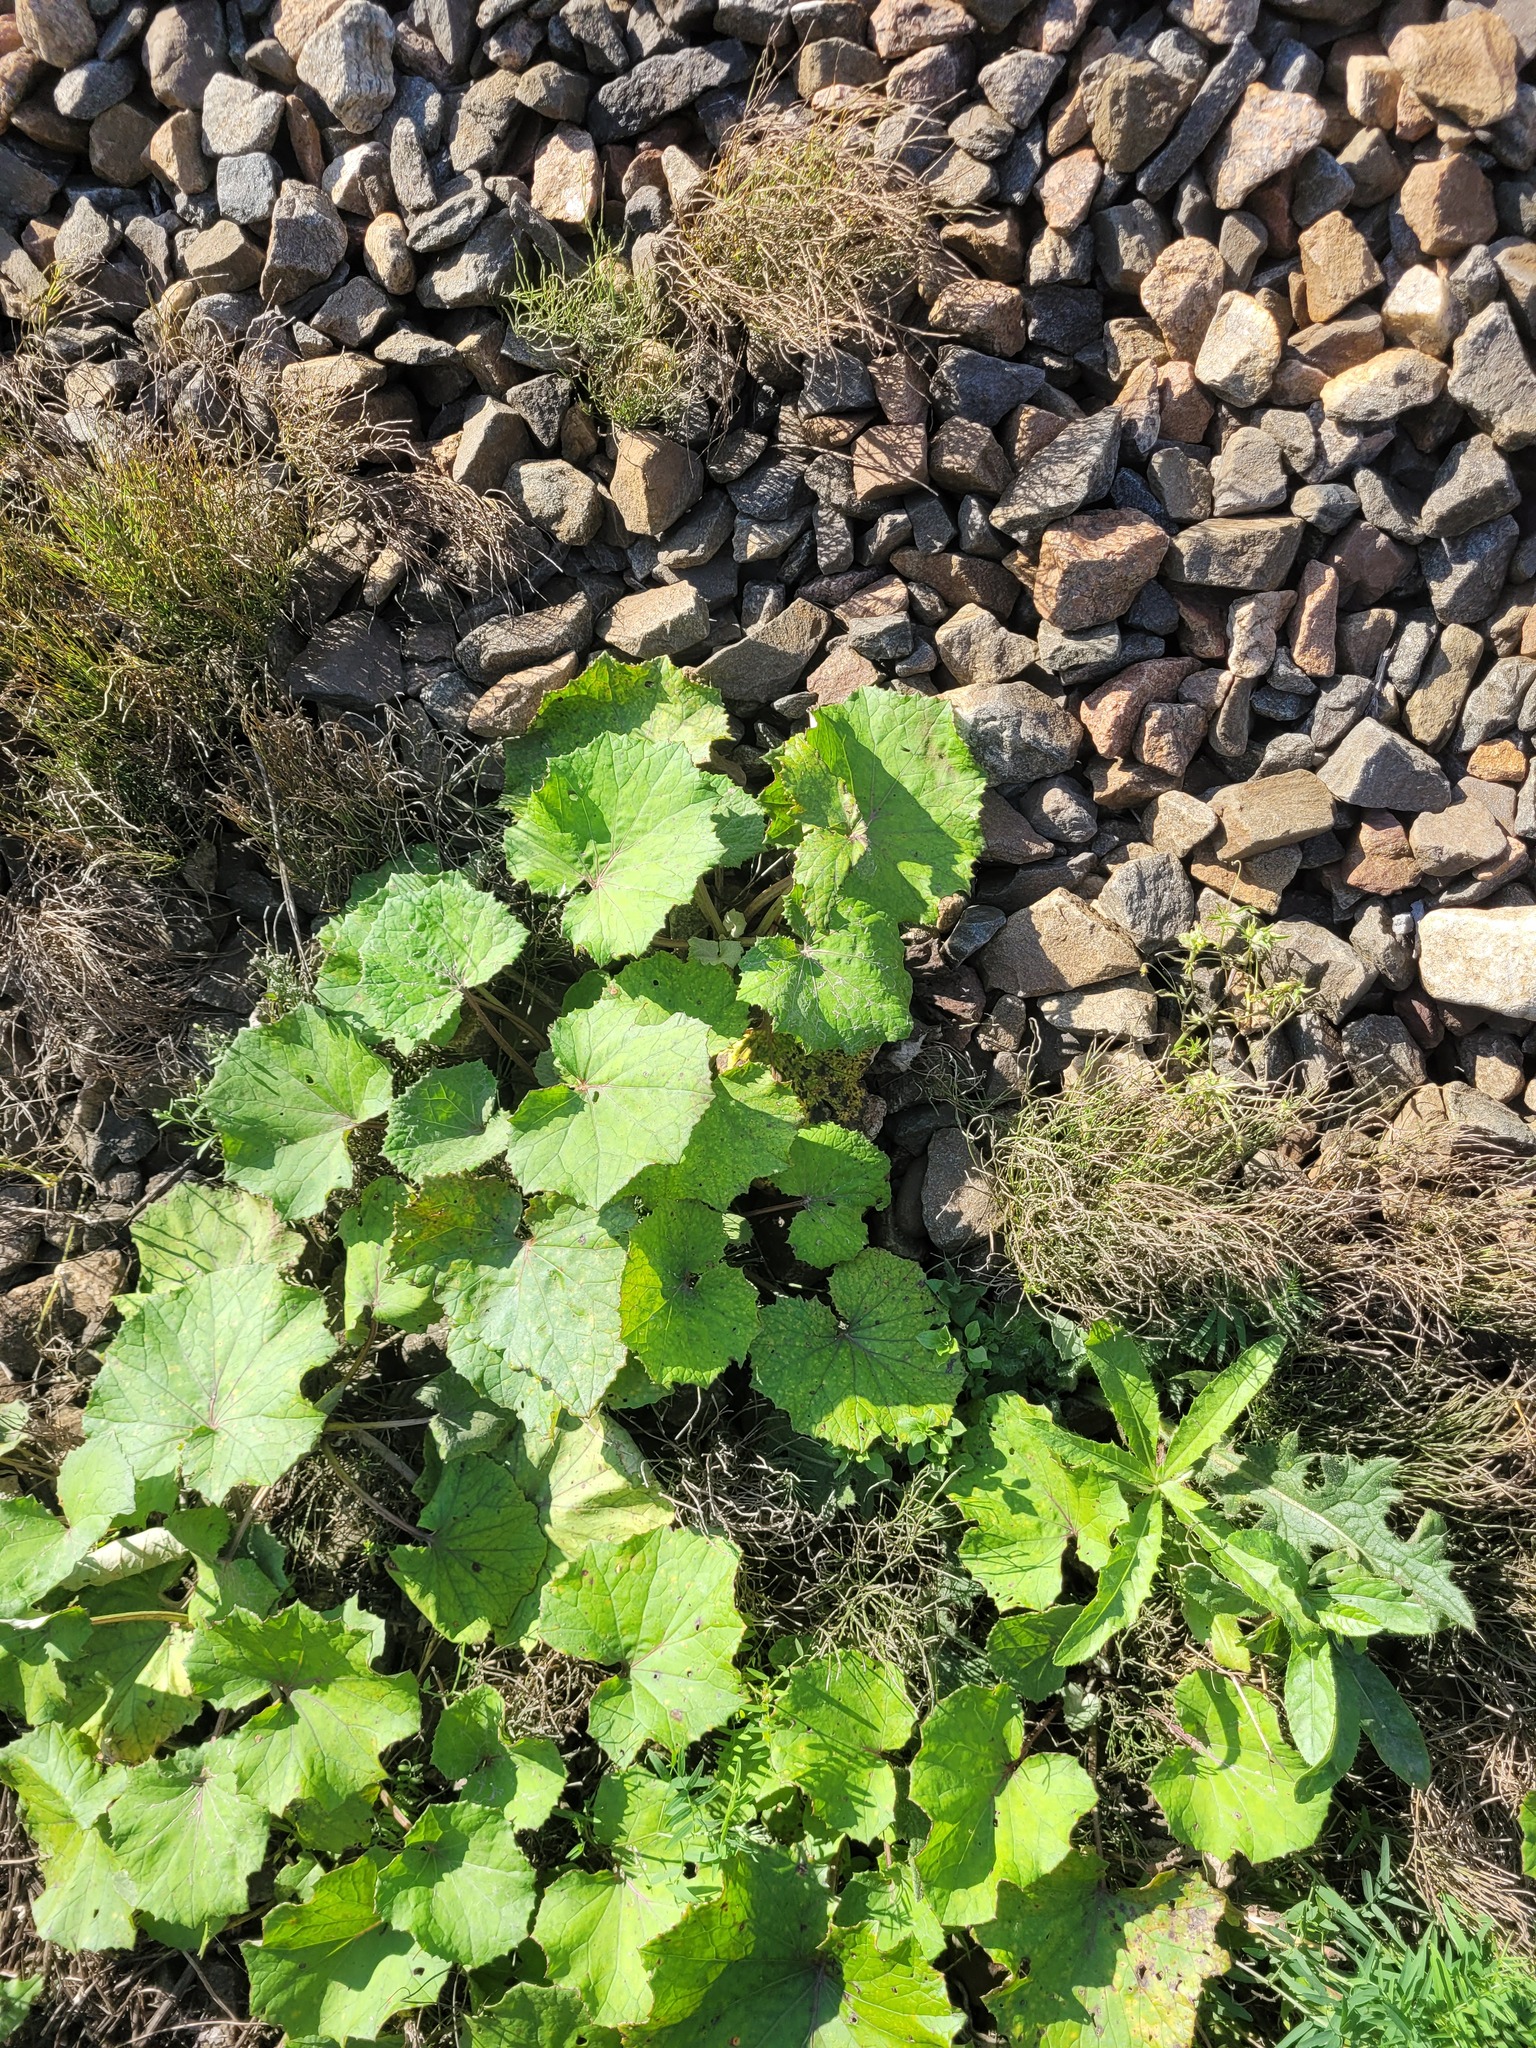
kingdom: Plantae
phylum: Tracheophyta
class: Magnoliopsida
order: Asterales
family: Asteraceae
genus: Tussilago
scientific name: Tussilago farfara
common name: Coltsfoot
